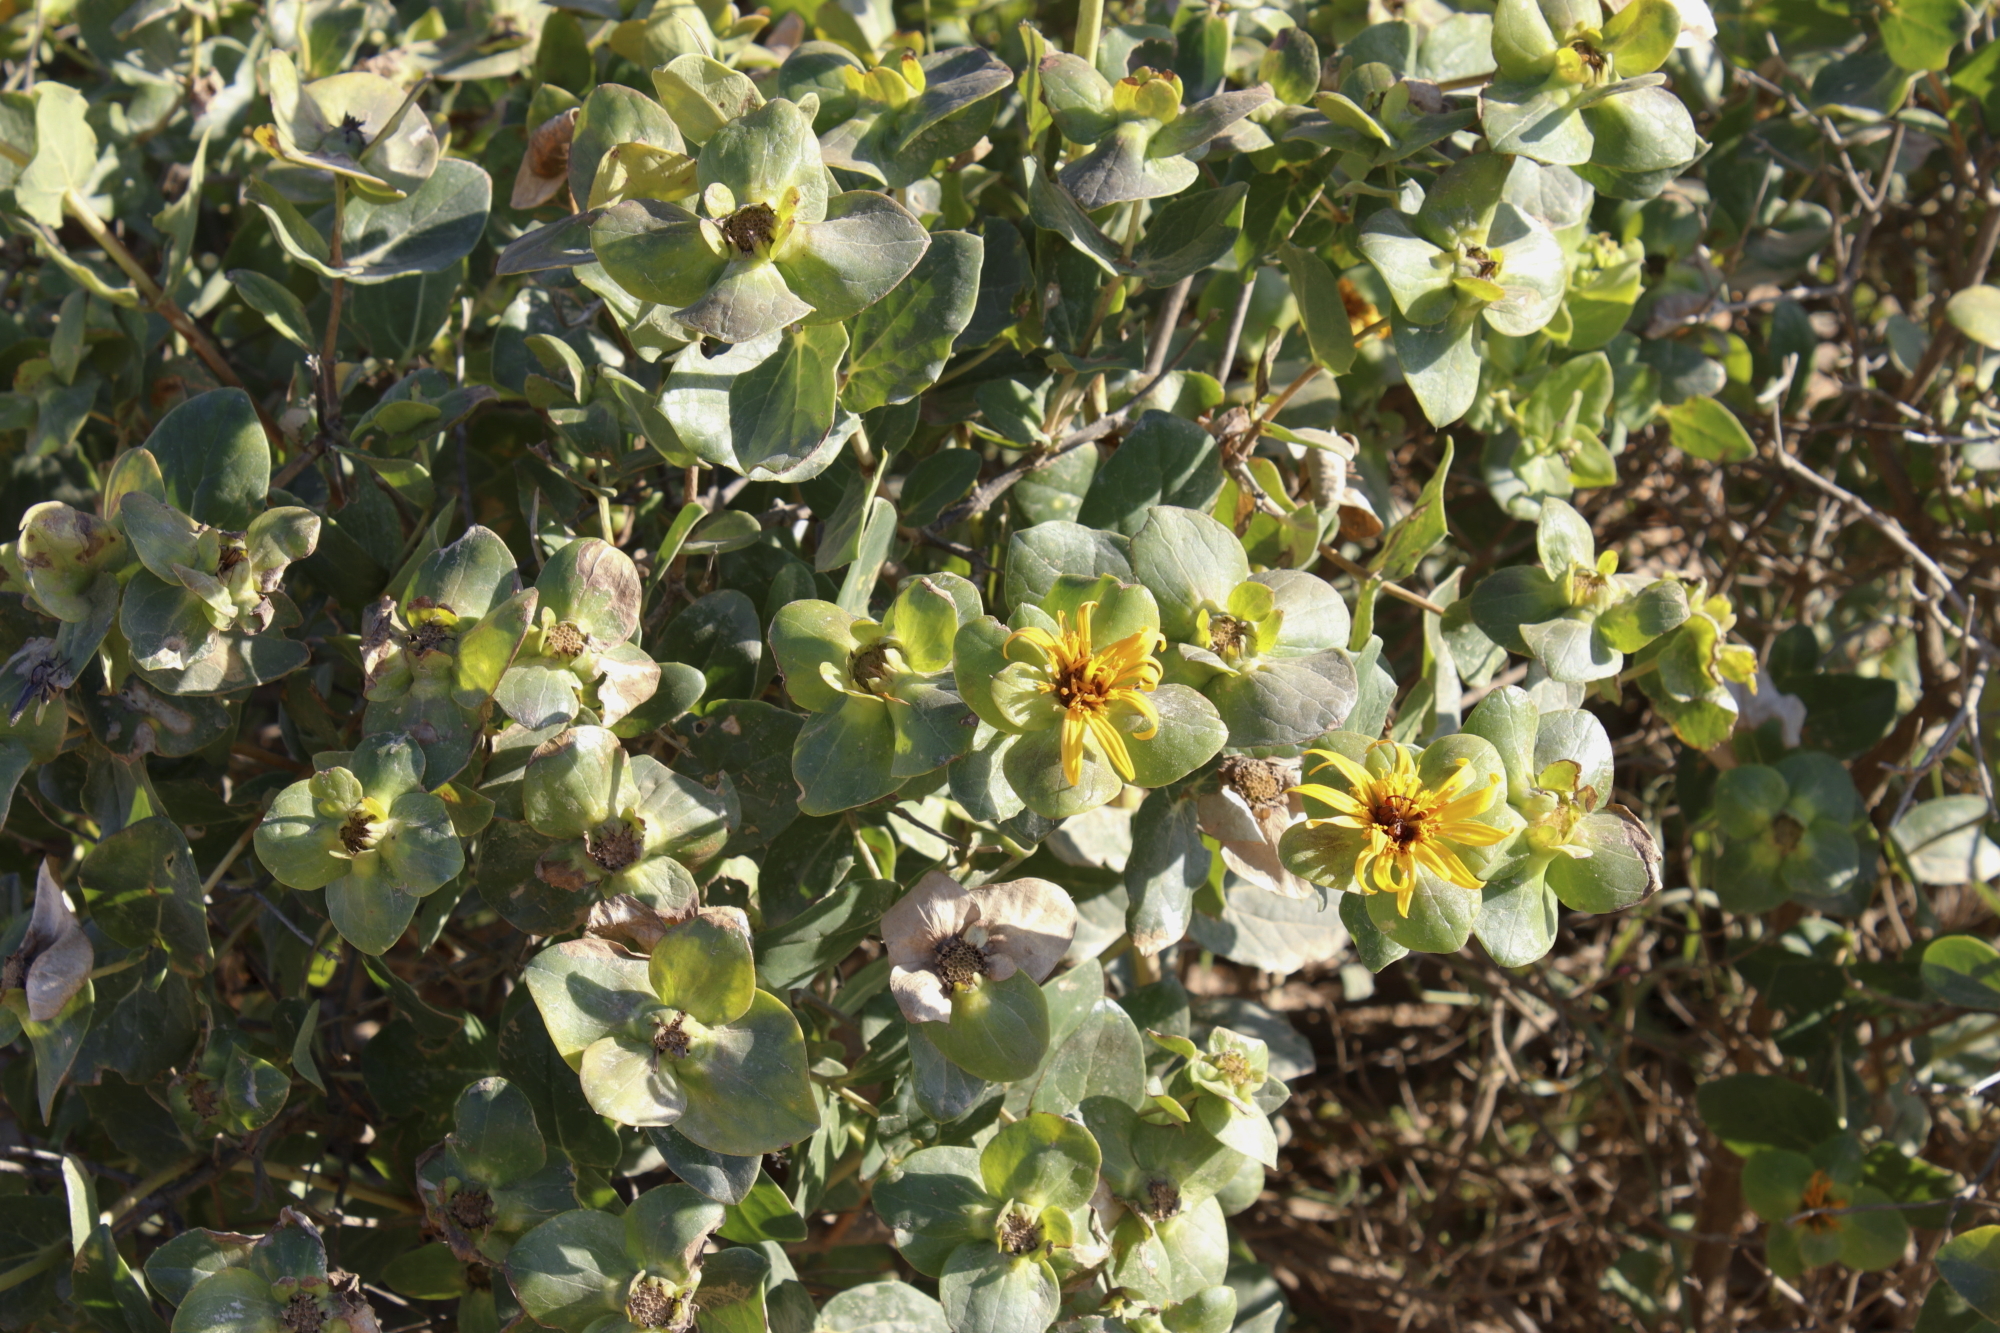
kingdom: Plantae
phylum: Tracheophyta
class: Magnoliopsida
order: Asterales
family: Asteraceae
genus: Didelta
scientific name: Didelta spinosa
